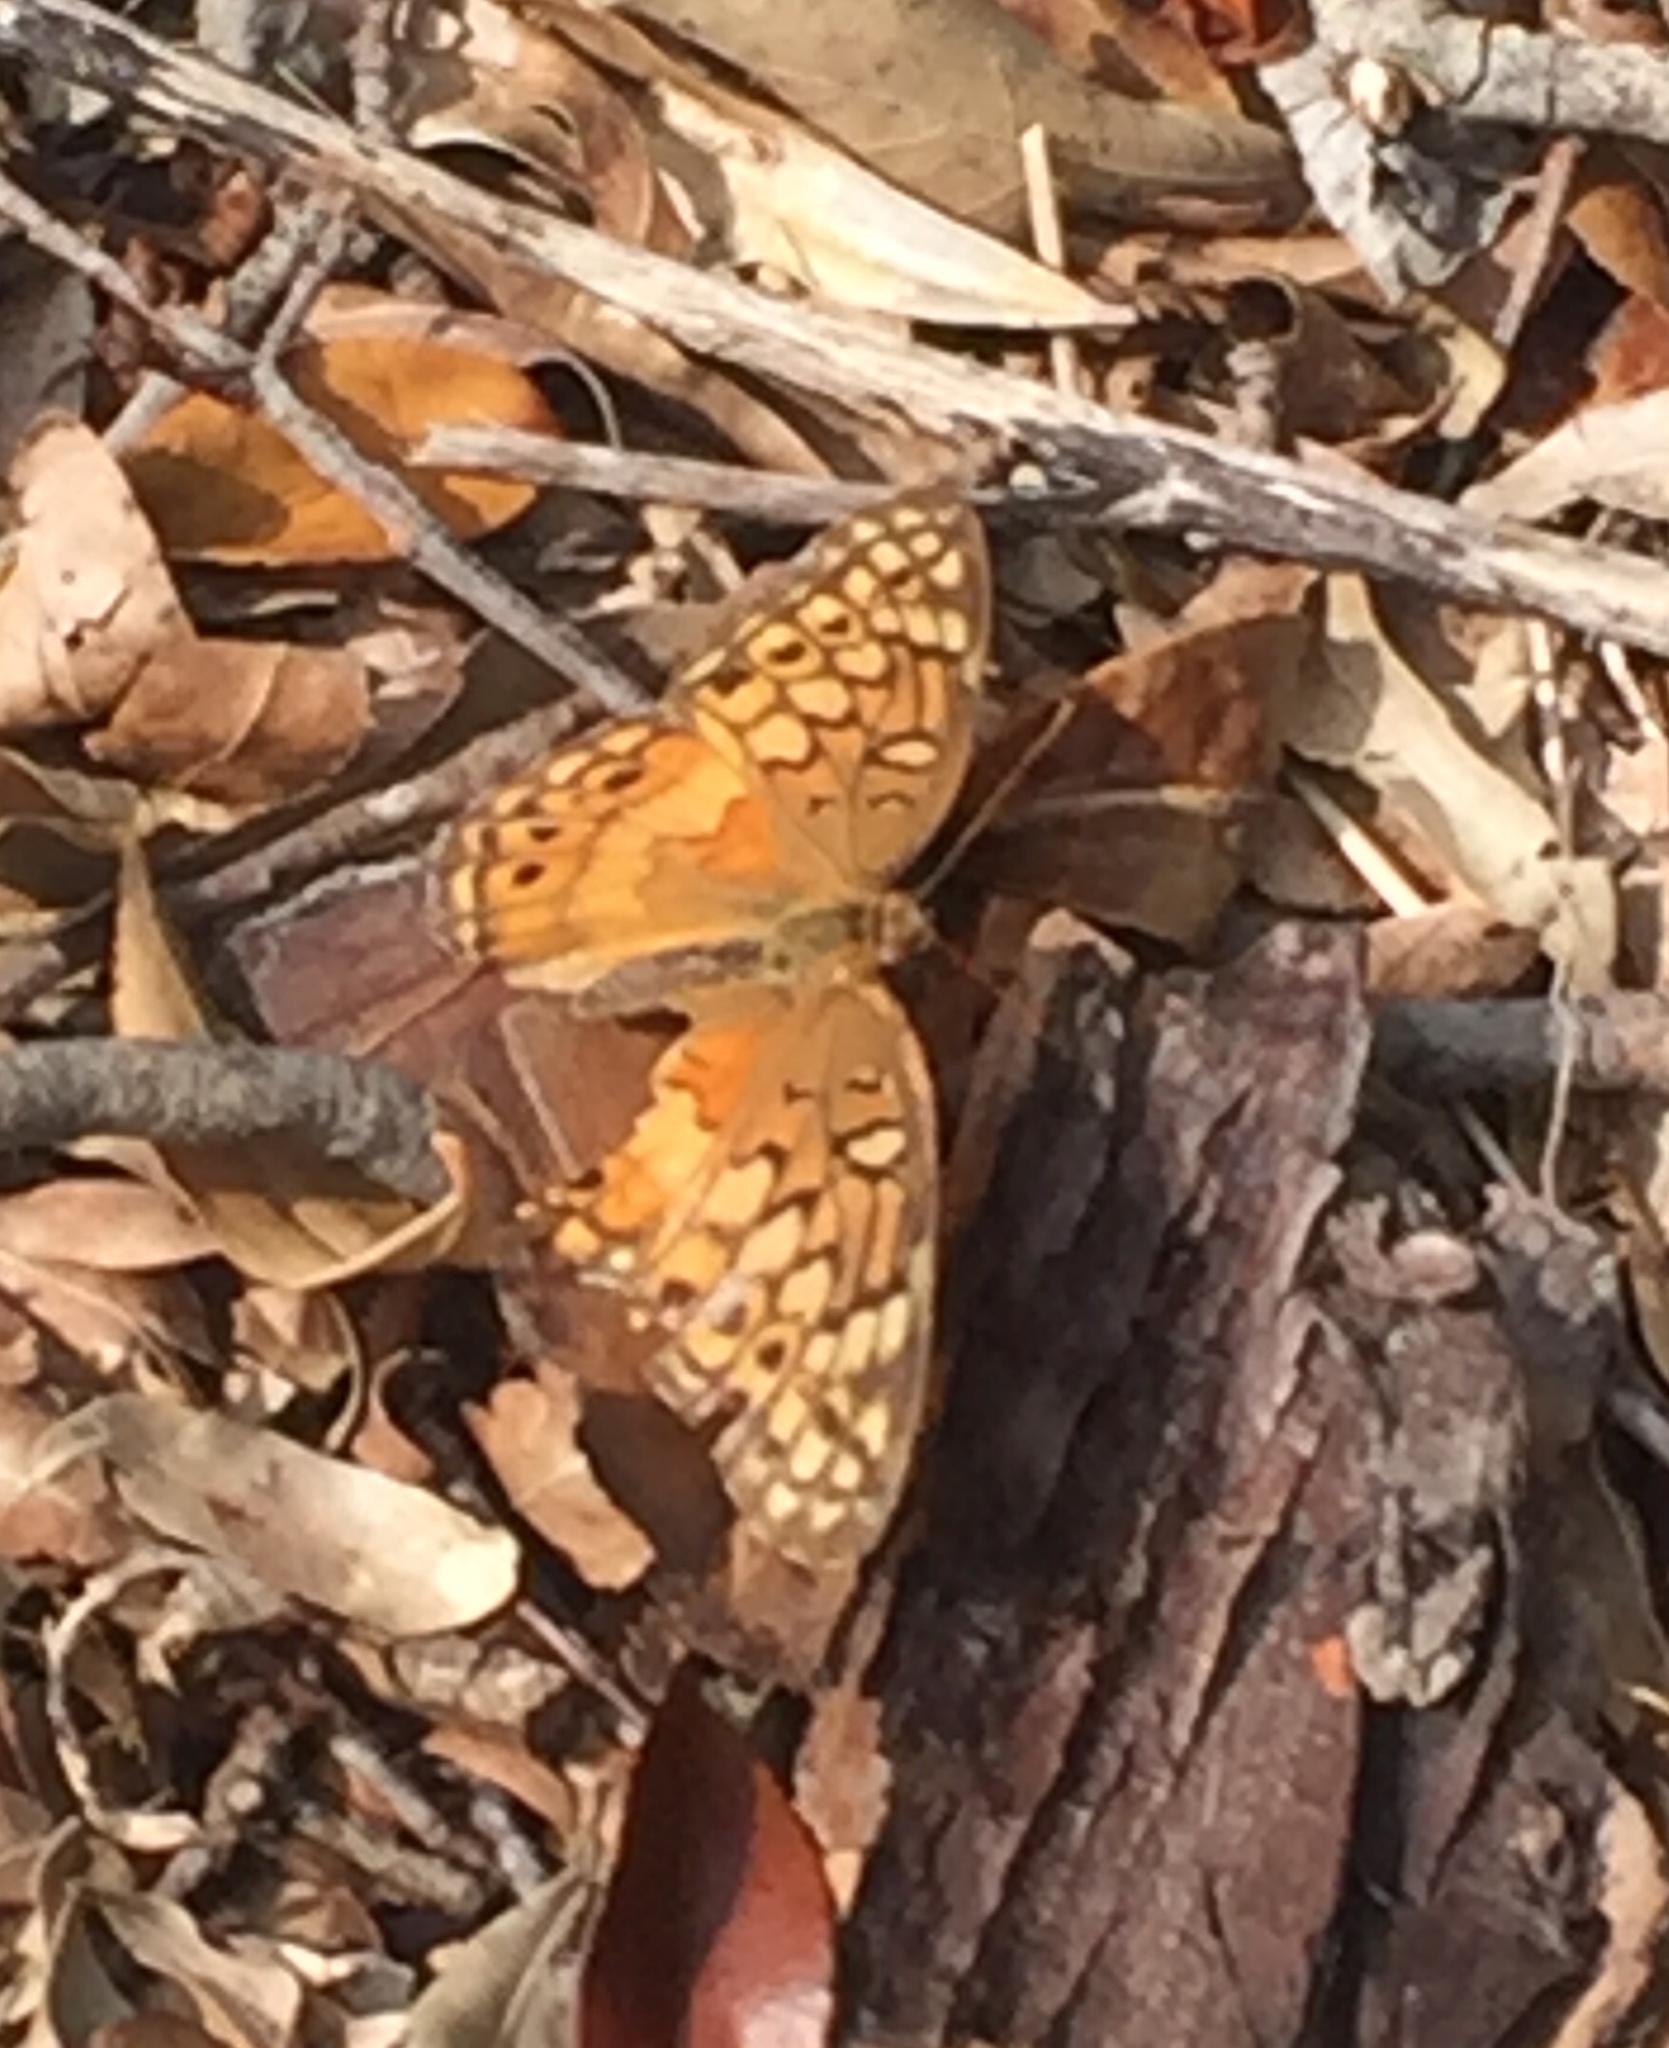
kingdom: Animalia
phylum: Arthropoda
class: Insecta
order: Lepidoptera
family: Nymphalidae
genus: Euptoieta
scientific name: Euptoieta claudia
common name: Variegated fritillary
